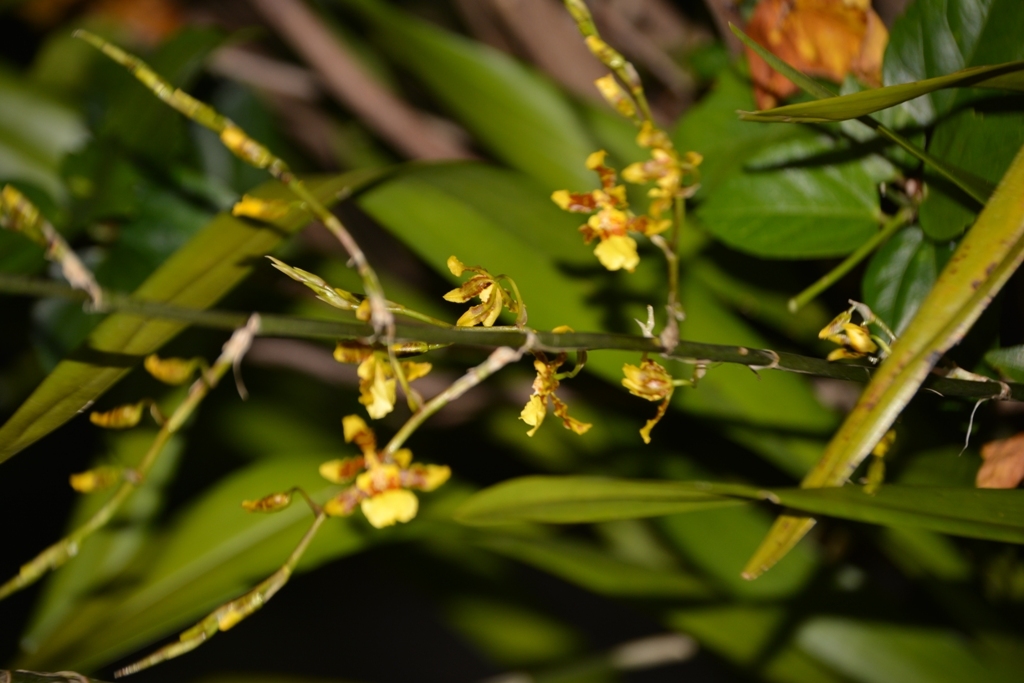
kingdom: Plantae
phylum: Tracheophyta
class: Liliopsida
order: Asparagales
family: Orchidaceae
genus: Oncidium
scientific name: Oncidium sphacelatum
